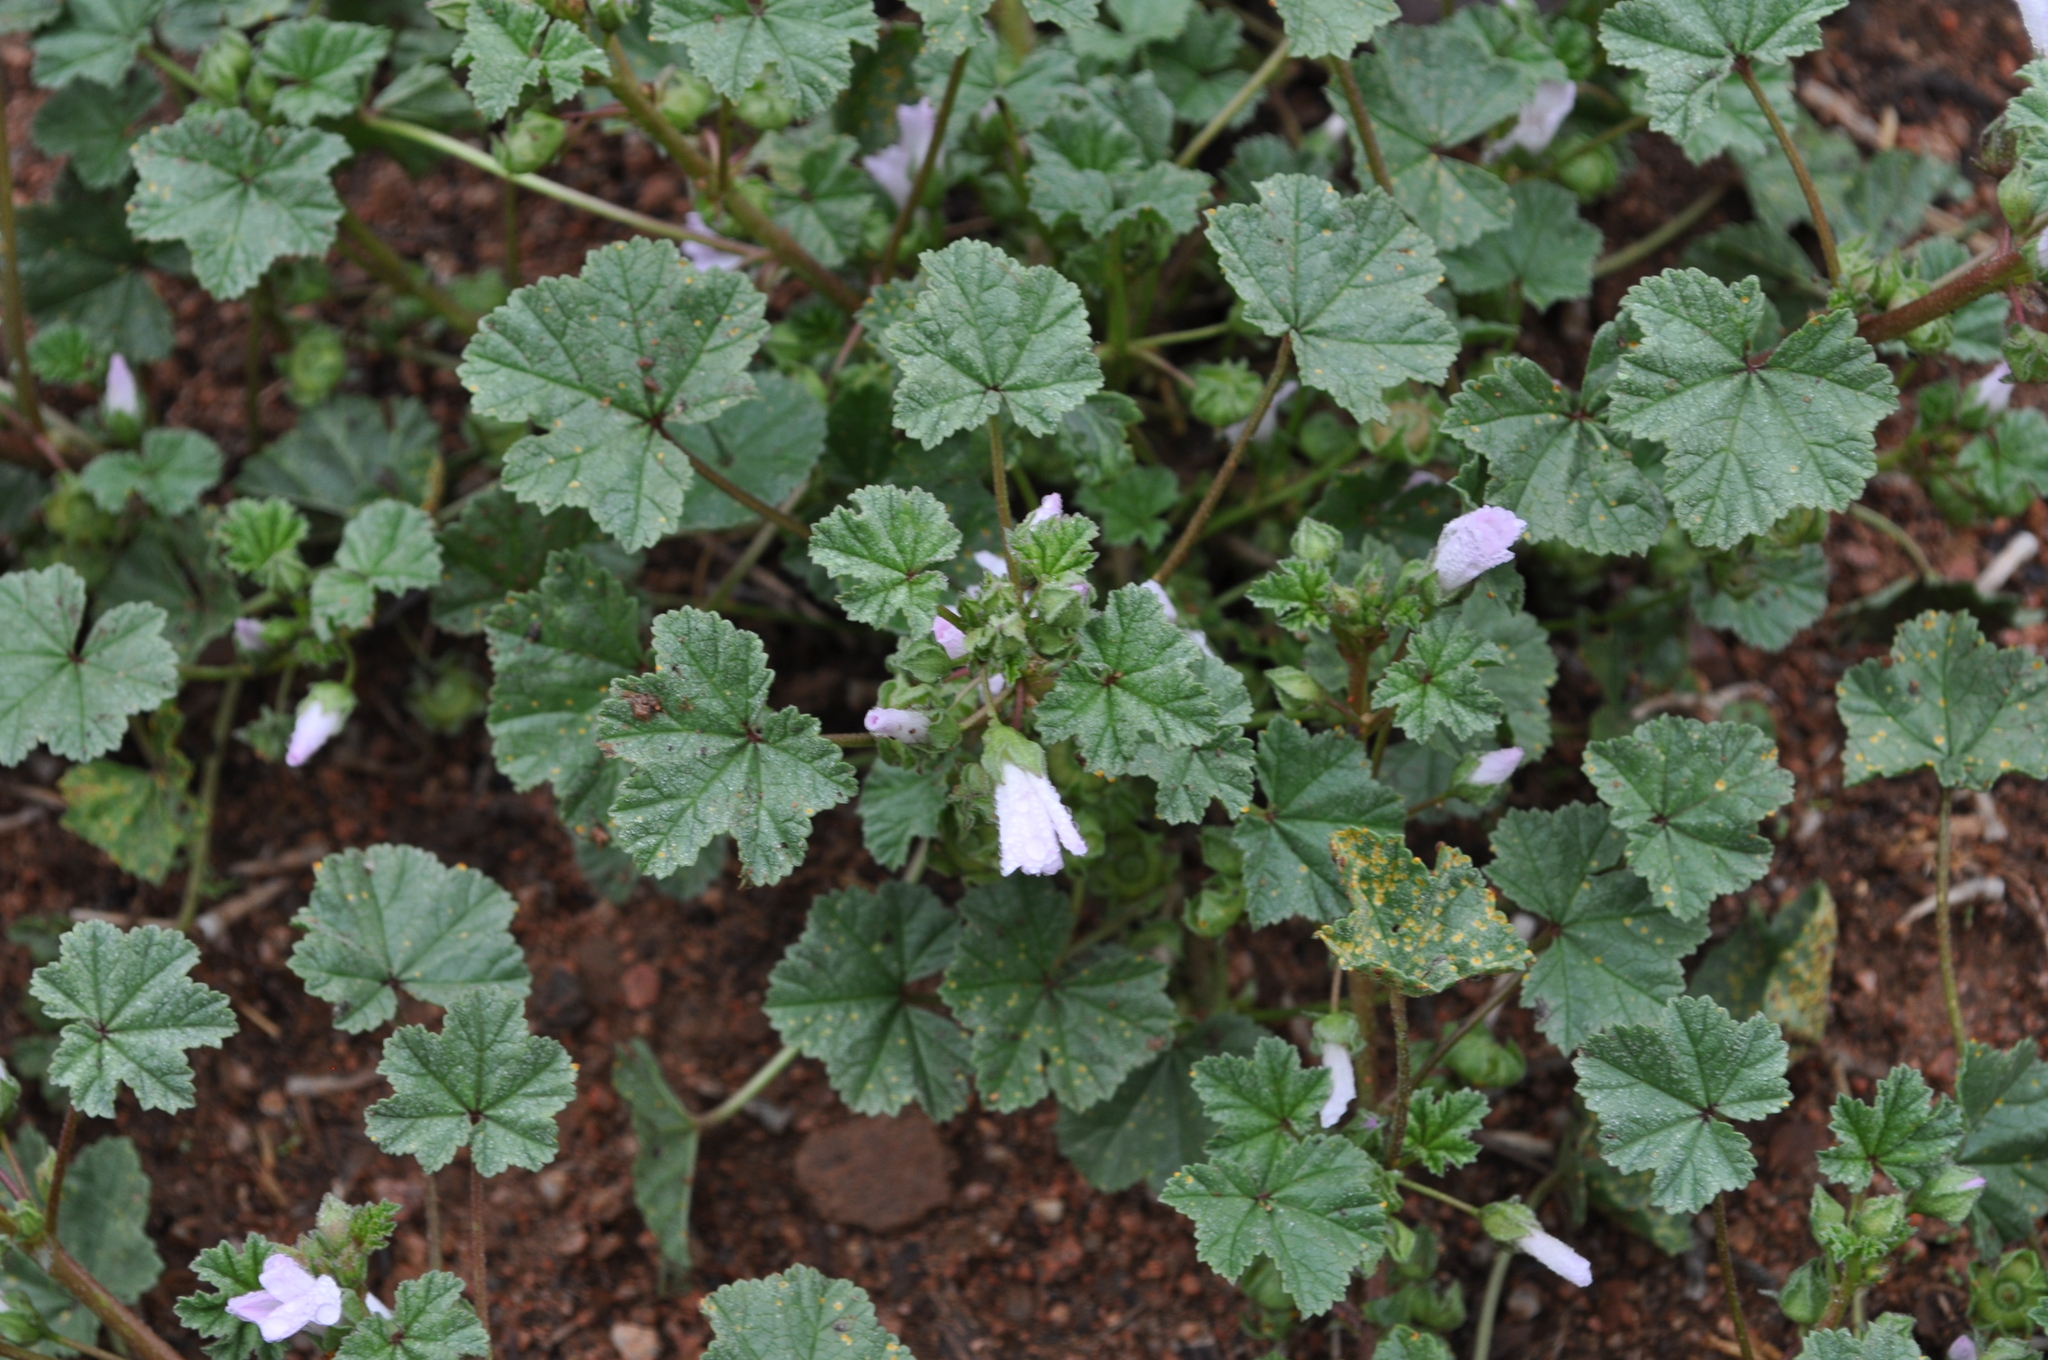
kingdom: Plantae
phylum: Tracheophyta
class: Magnoliopsida
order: Malvales
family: Malvaceae
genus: Malva
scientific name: Malva neglecta
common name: Common mallow
